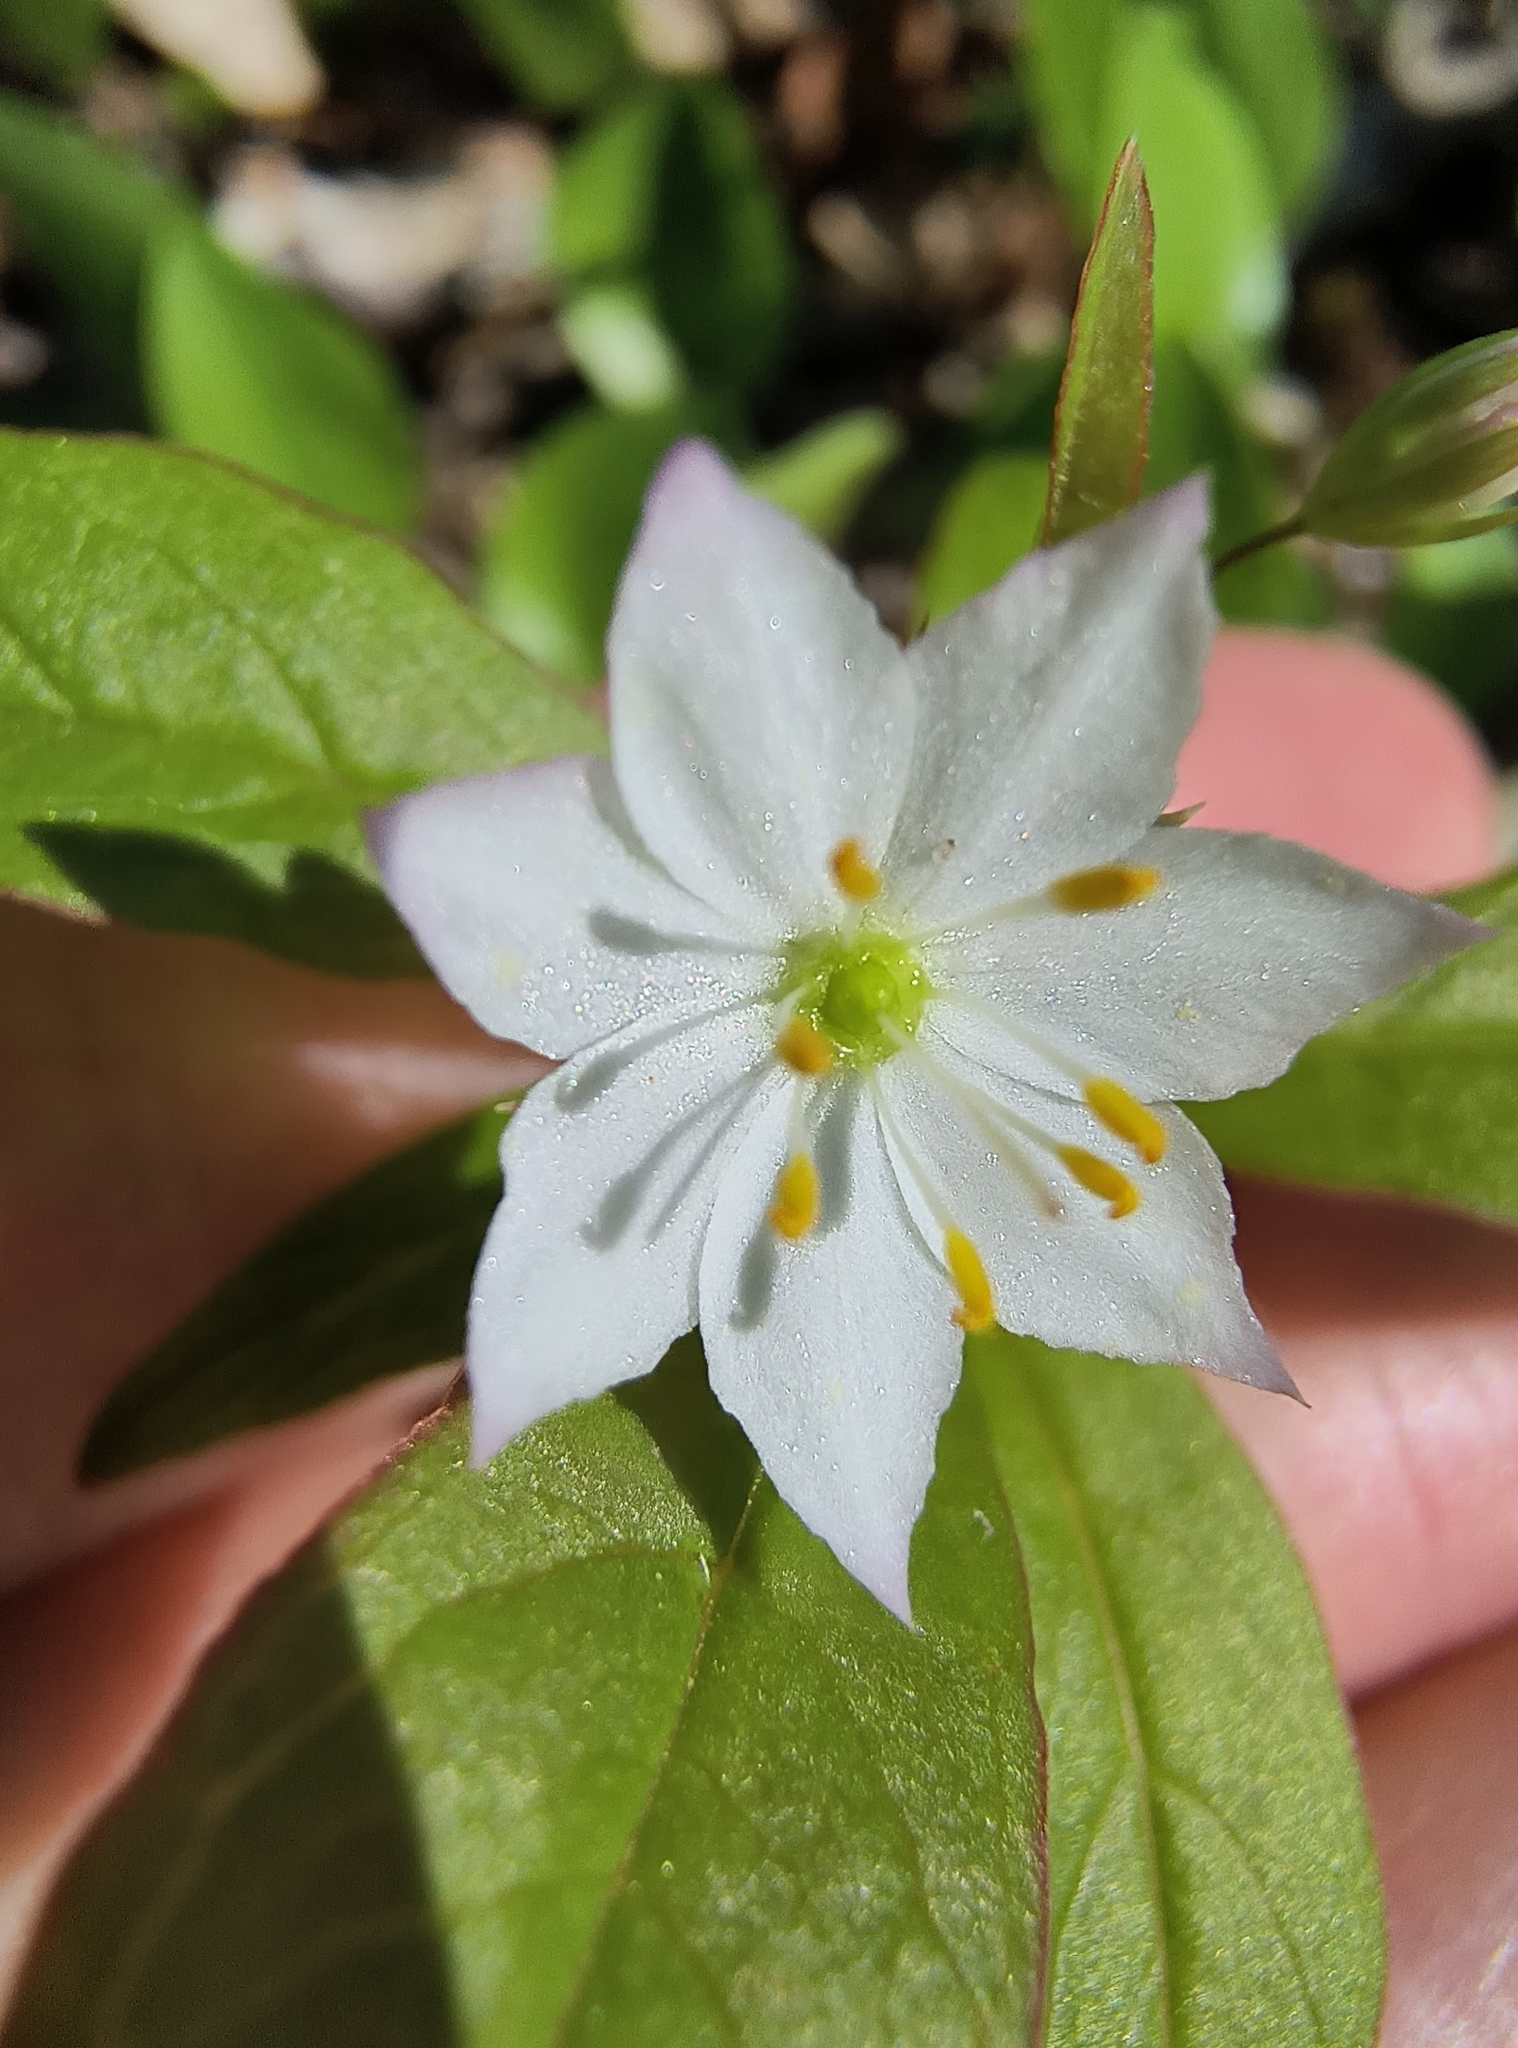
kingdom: Plantae
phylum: Tracheophyta
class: Magnoliopsida
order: Ericales
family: Primulaceae
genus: Lysimachia
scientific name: Lysimachia borealis
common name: American starflower
